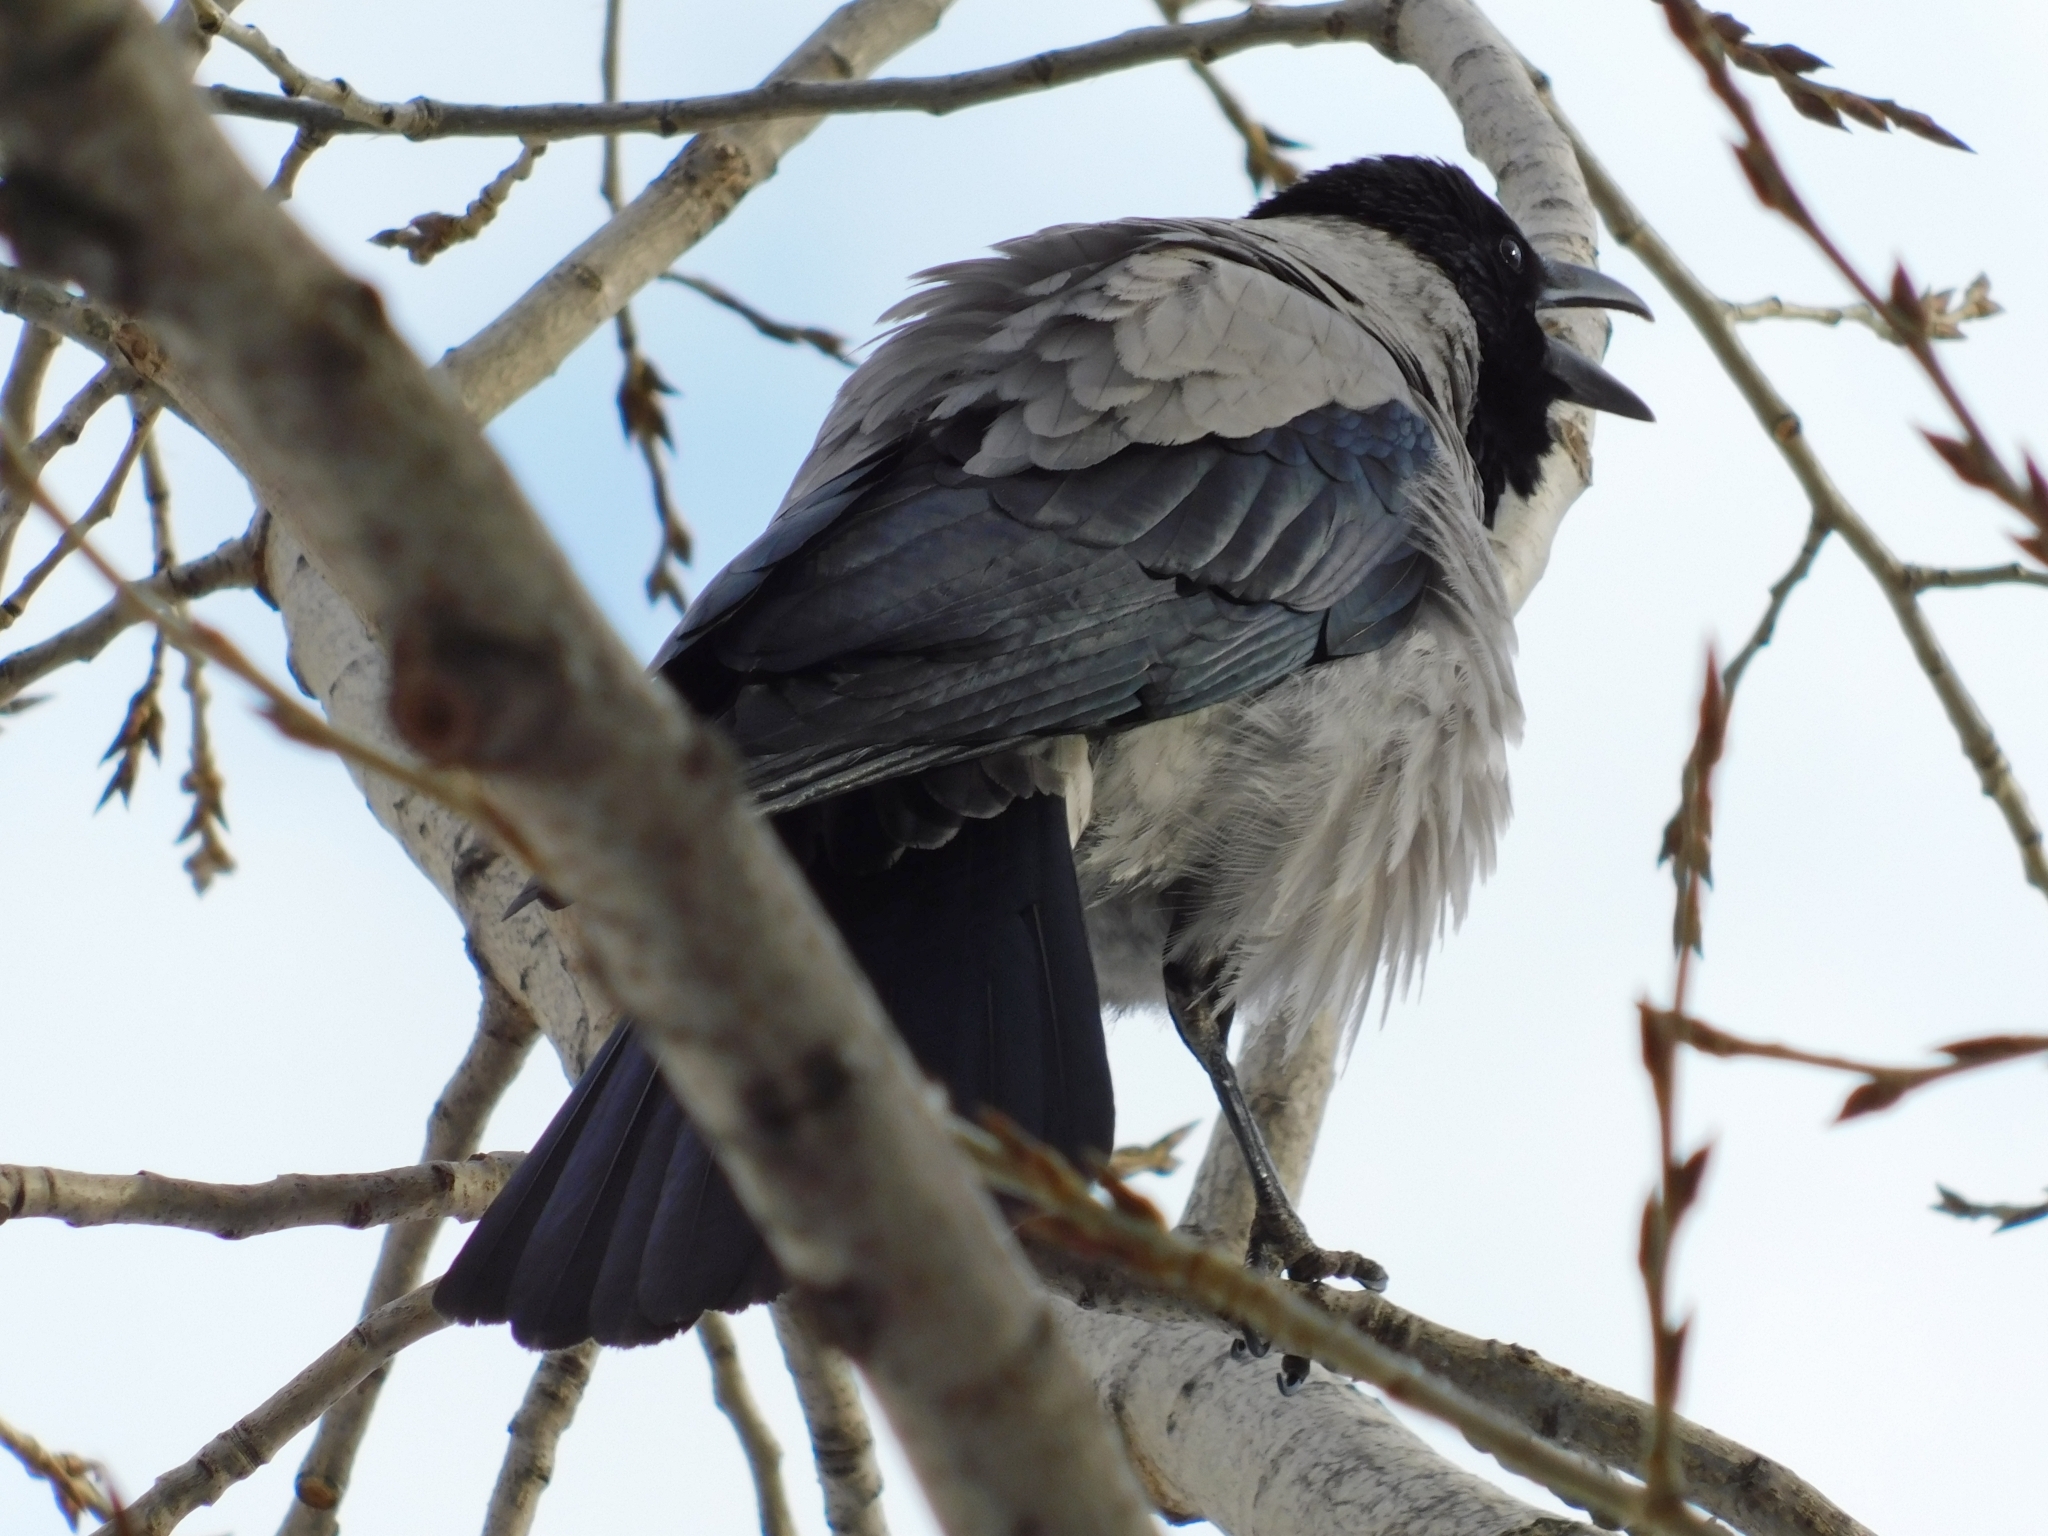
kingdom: Animalia
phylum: Chordata
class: Aves
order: Passeriformes
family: Corvidae
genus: Corvus
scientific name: Corvus cornix
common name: Hooded crow
